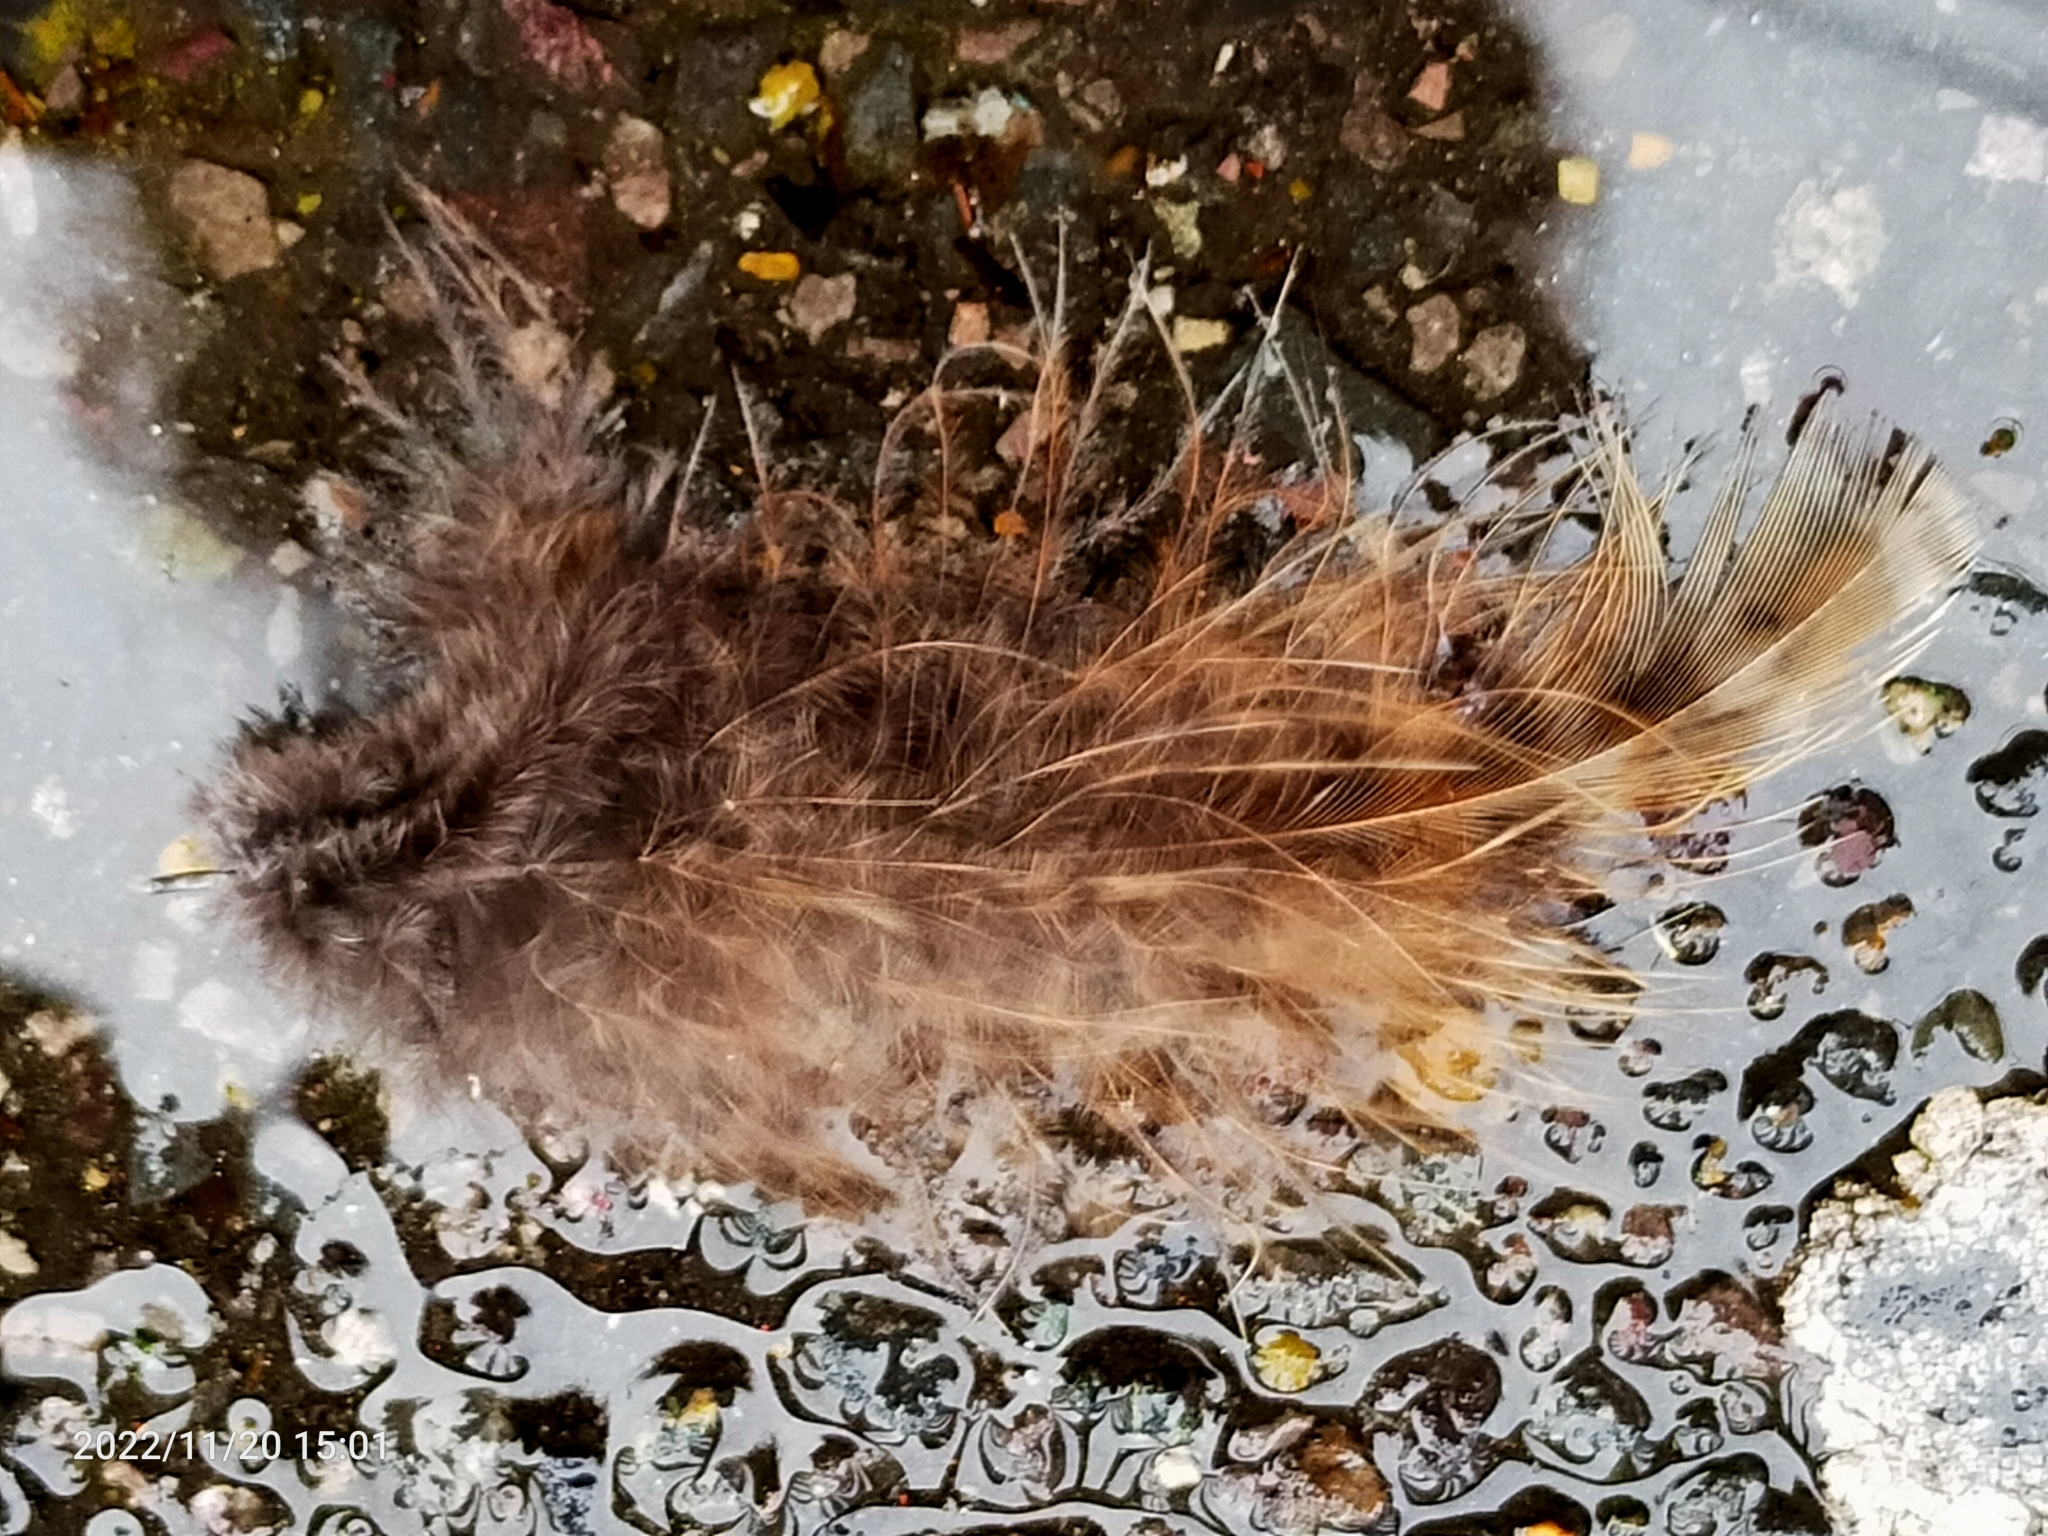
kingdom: Animalia
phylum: Chordata
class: Aves
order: Galliformes
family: Phasianidae
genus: Phasianus
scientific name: Phasianus colchicus
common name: Common pheasant
